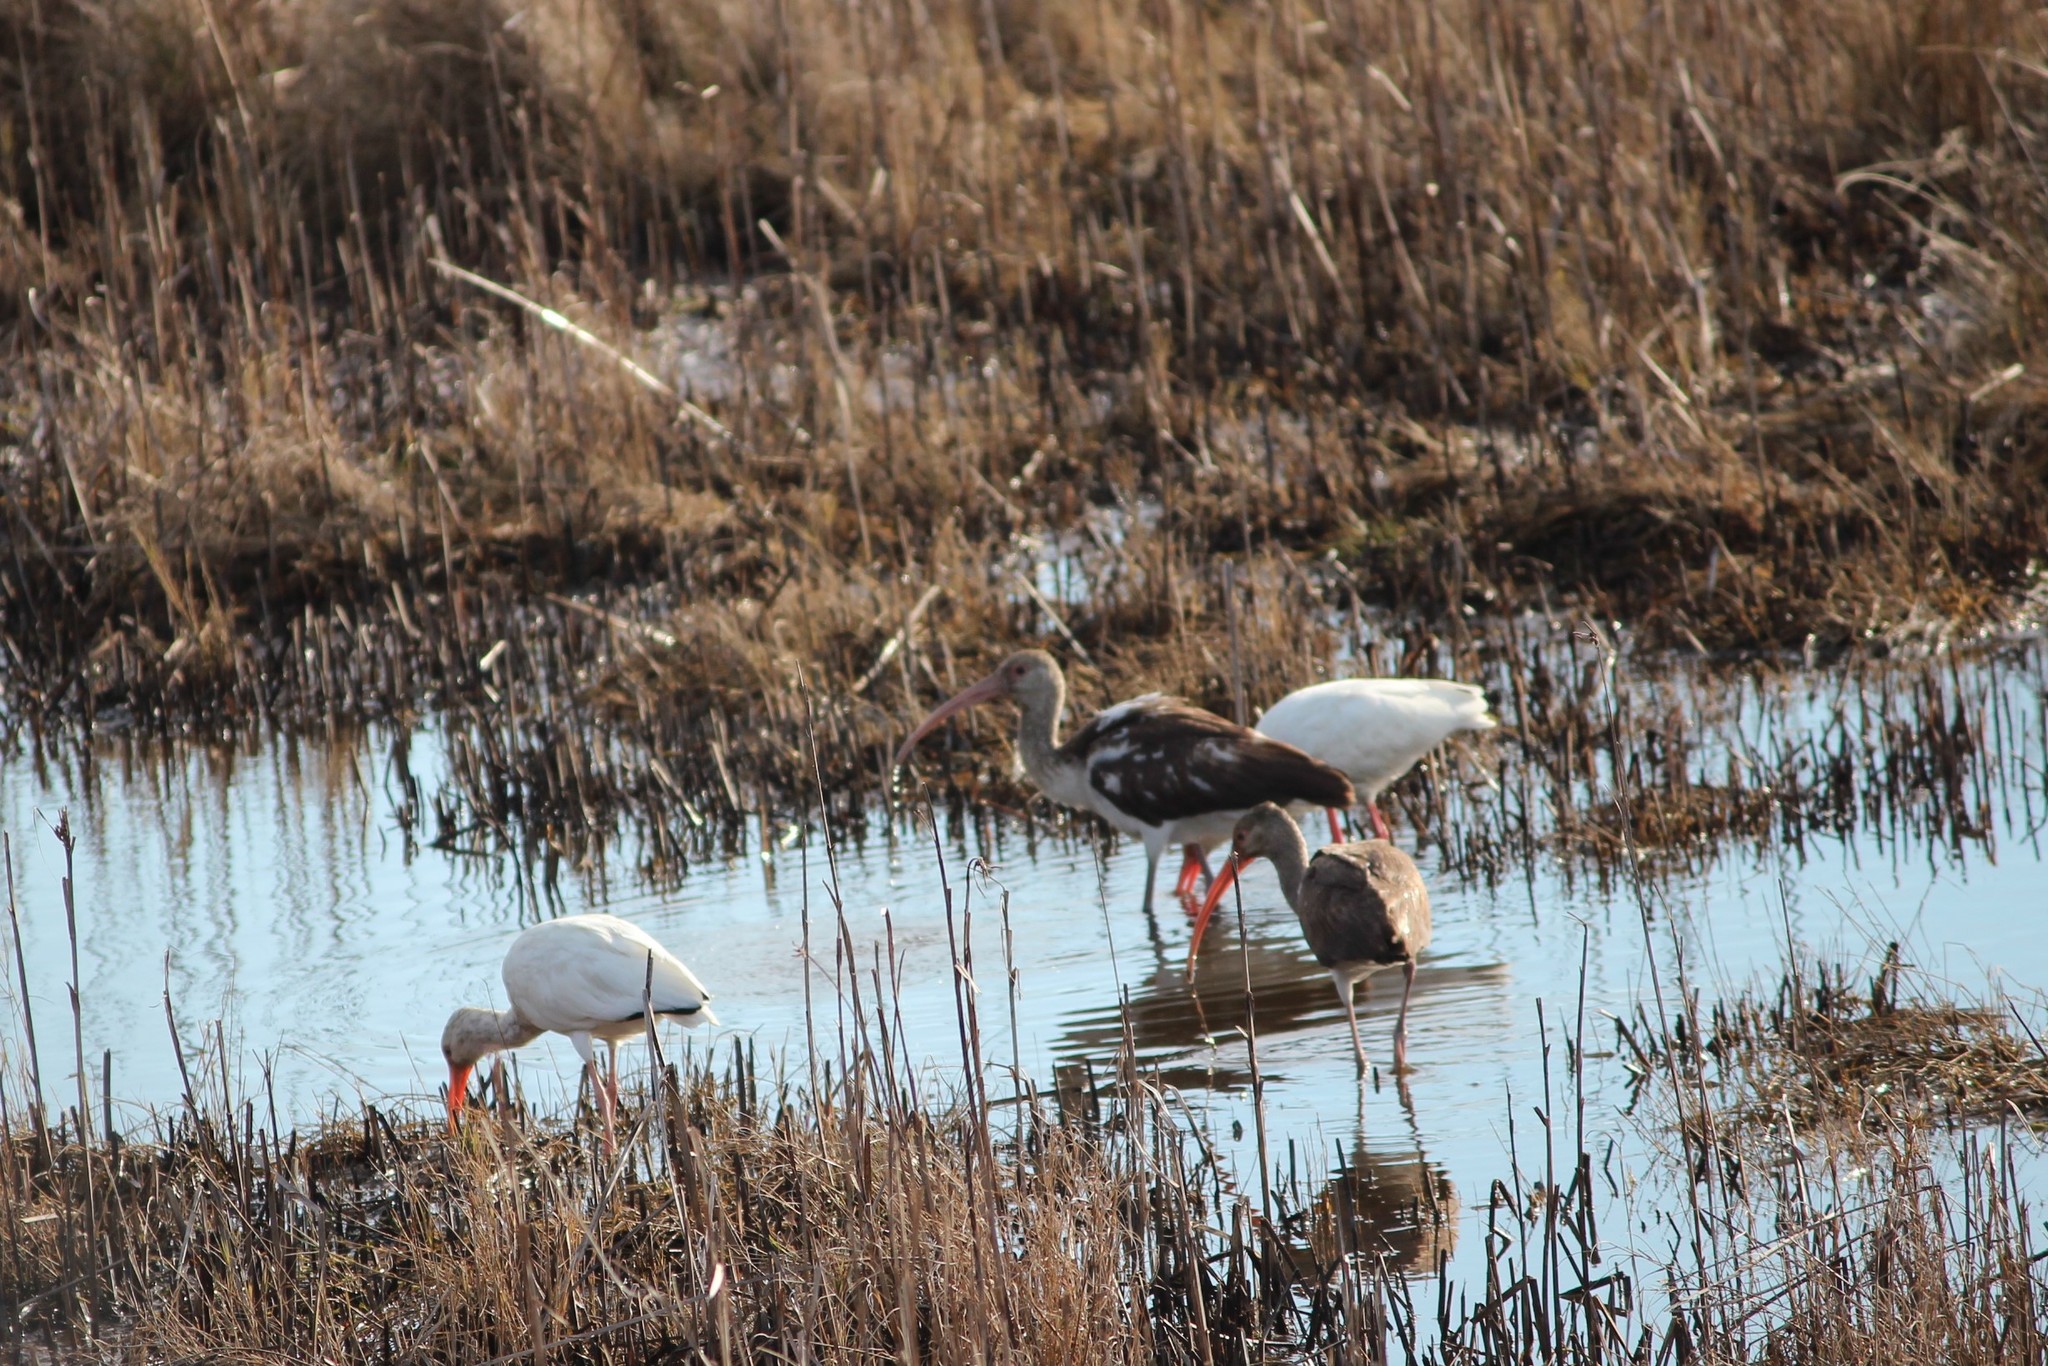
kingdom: Animalia
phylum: Chordata
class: Aves
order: Pelecaniformes
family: Threskiornithidae
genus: Eudocimus
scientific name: Eudocimus albus
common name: White ibis
